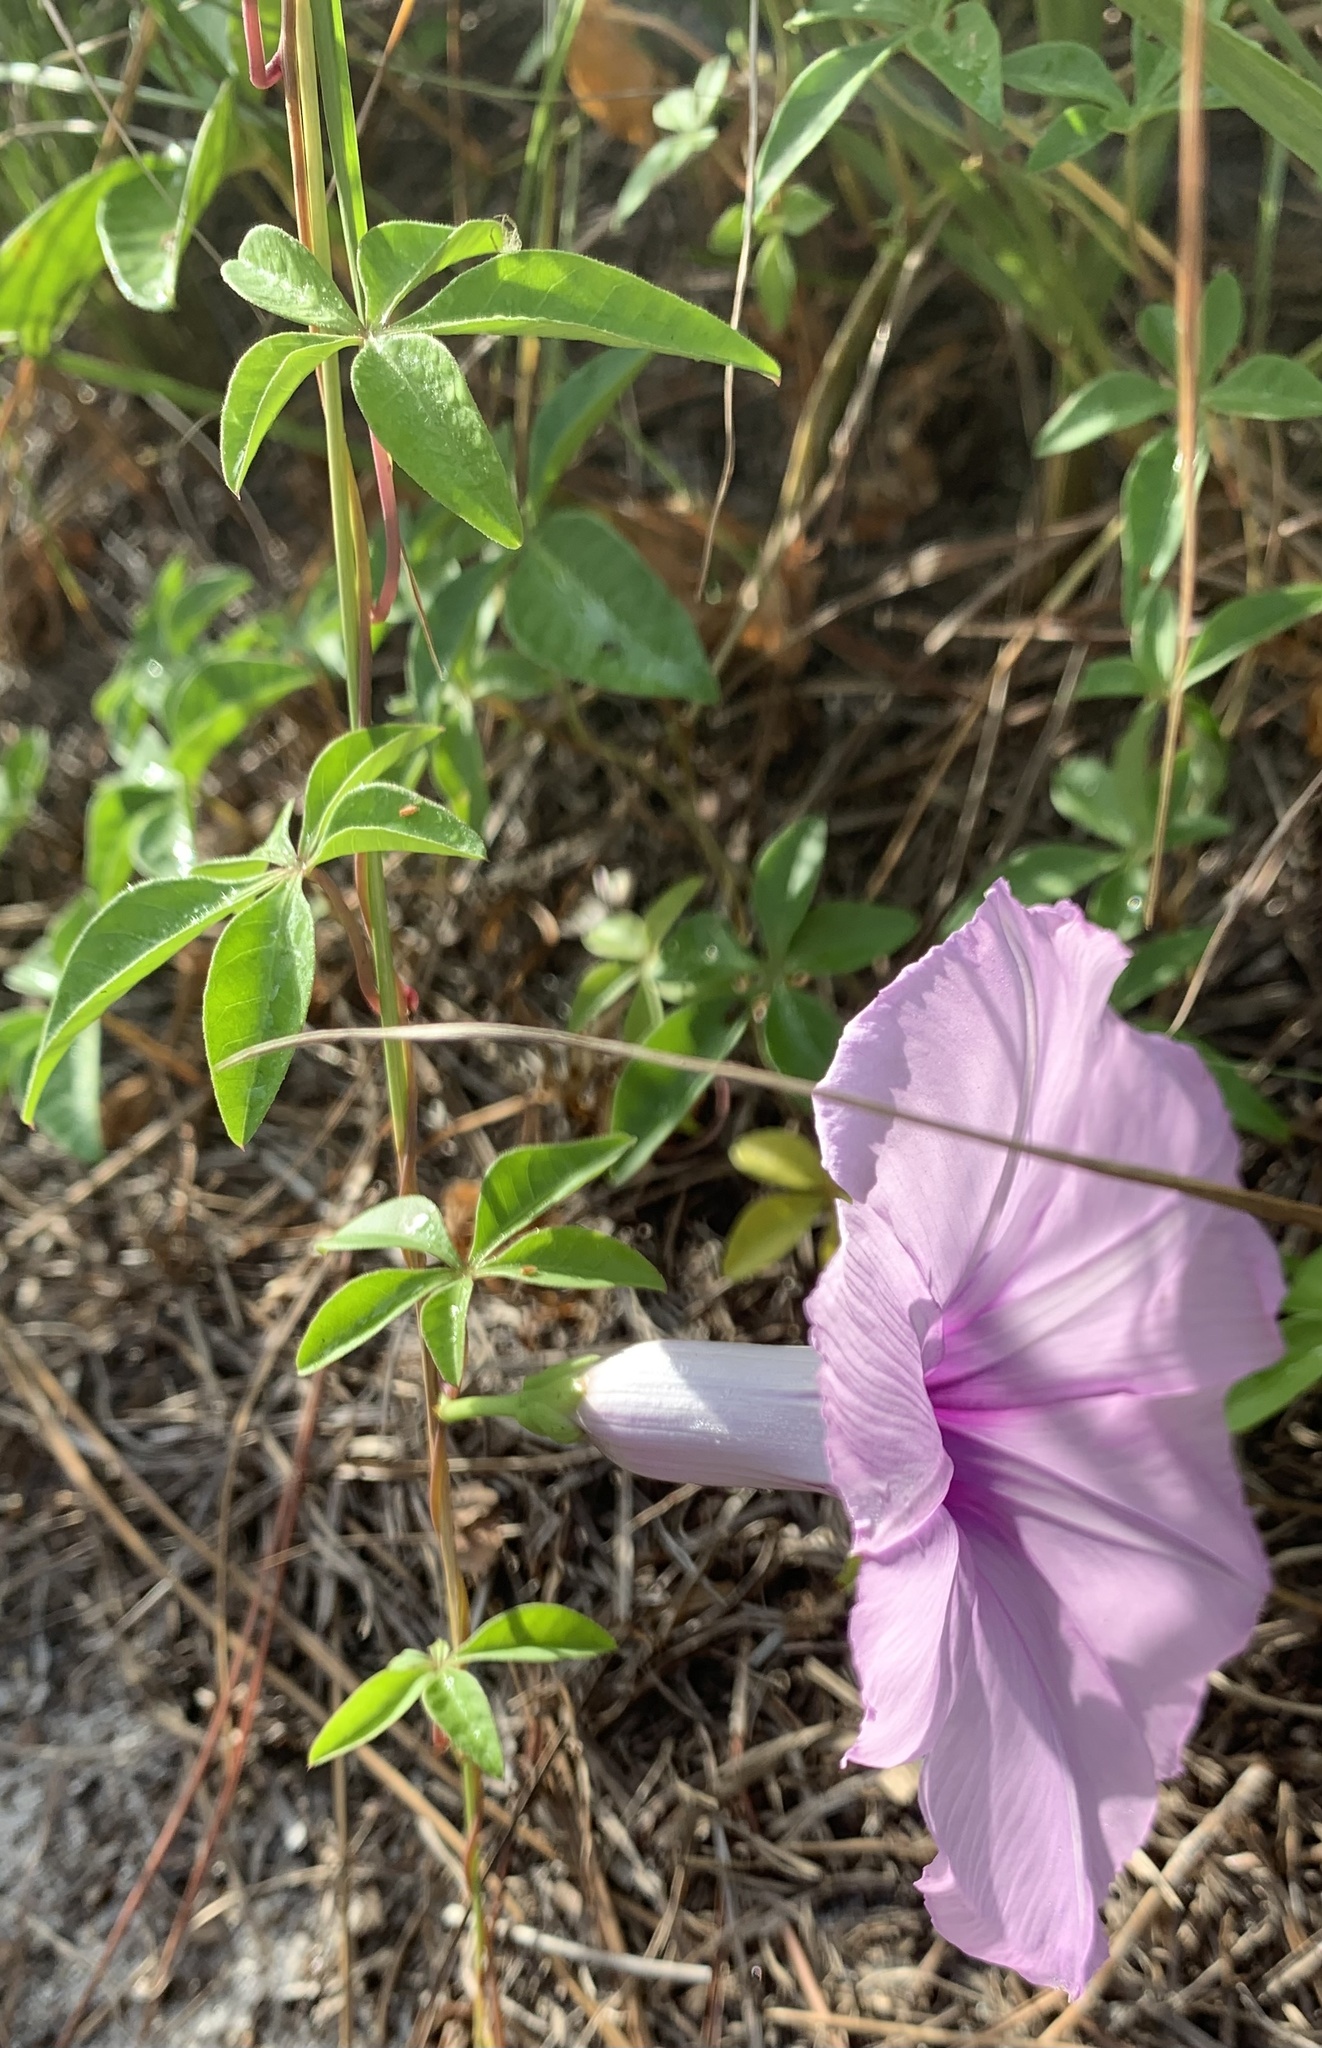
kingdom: Plantae
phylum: Tracheophyta
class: Magnoliopsida
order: Solanales
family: Convolvulaceae
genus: Ipomoea
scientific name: Ipomoea cairica
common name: Mile a minute vine
